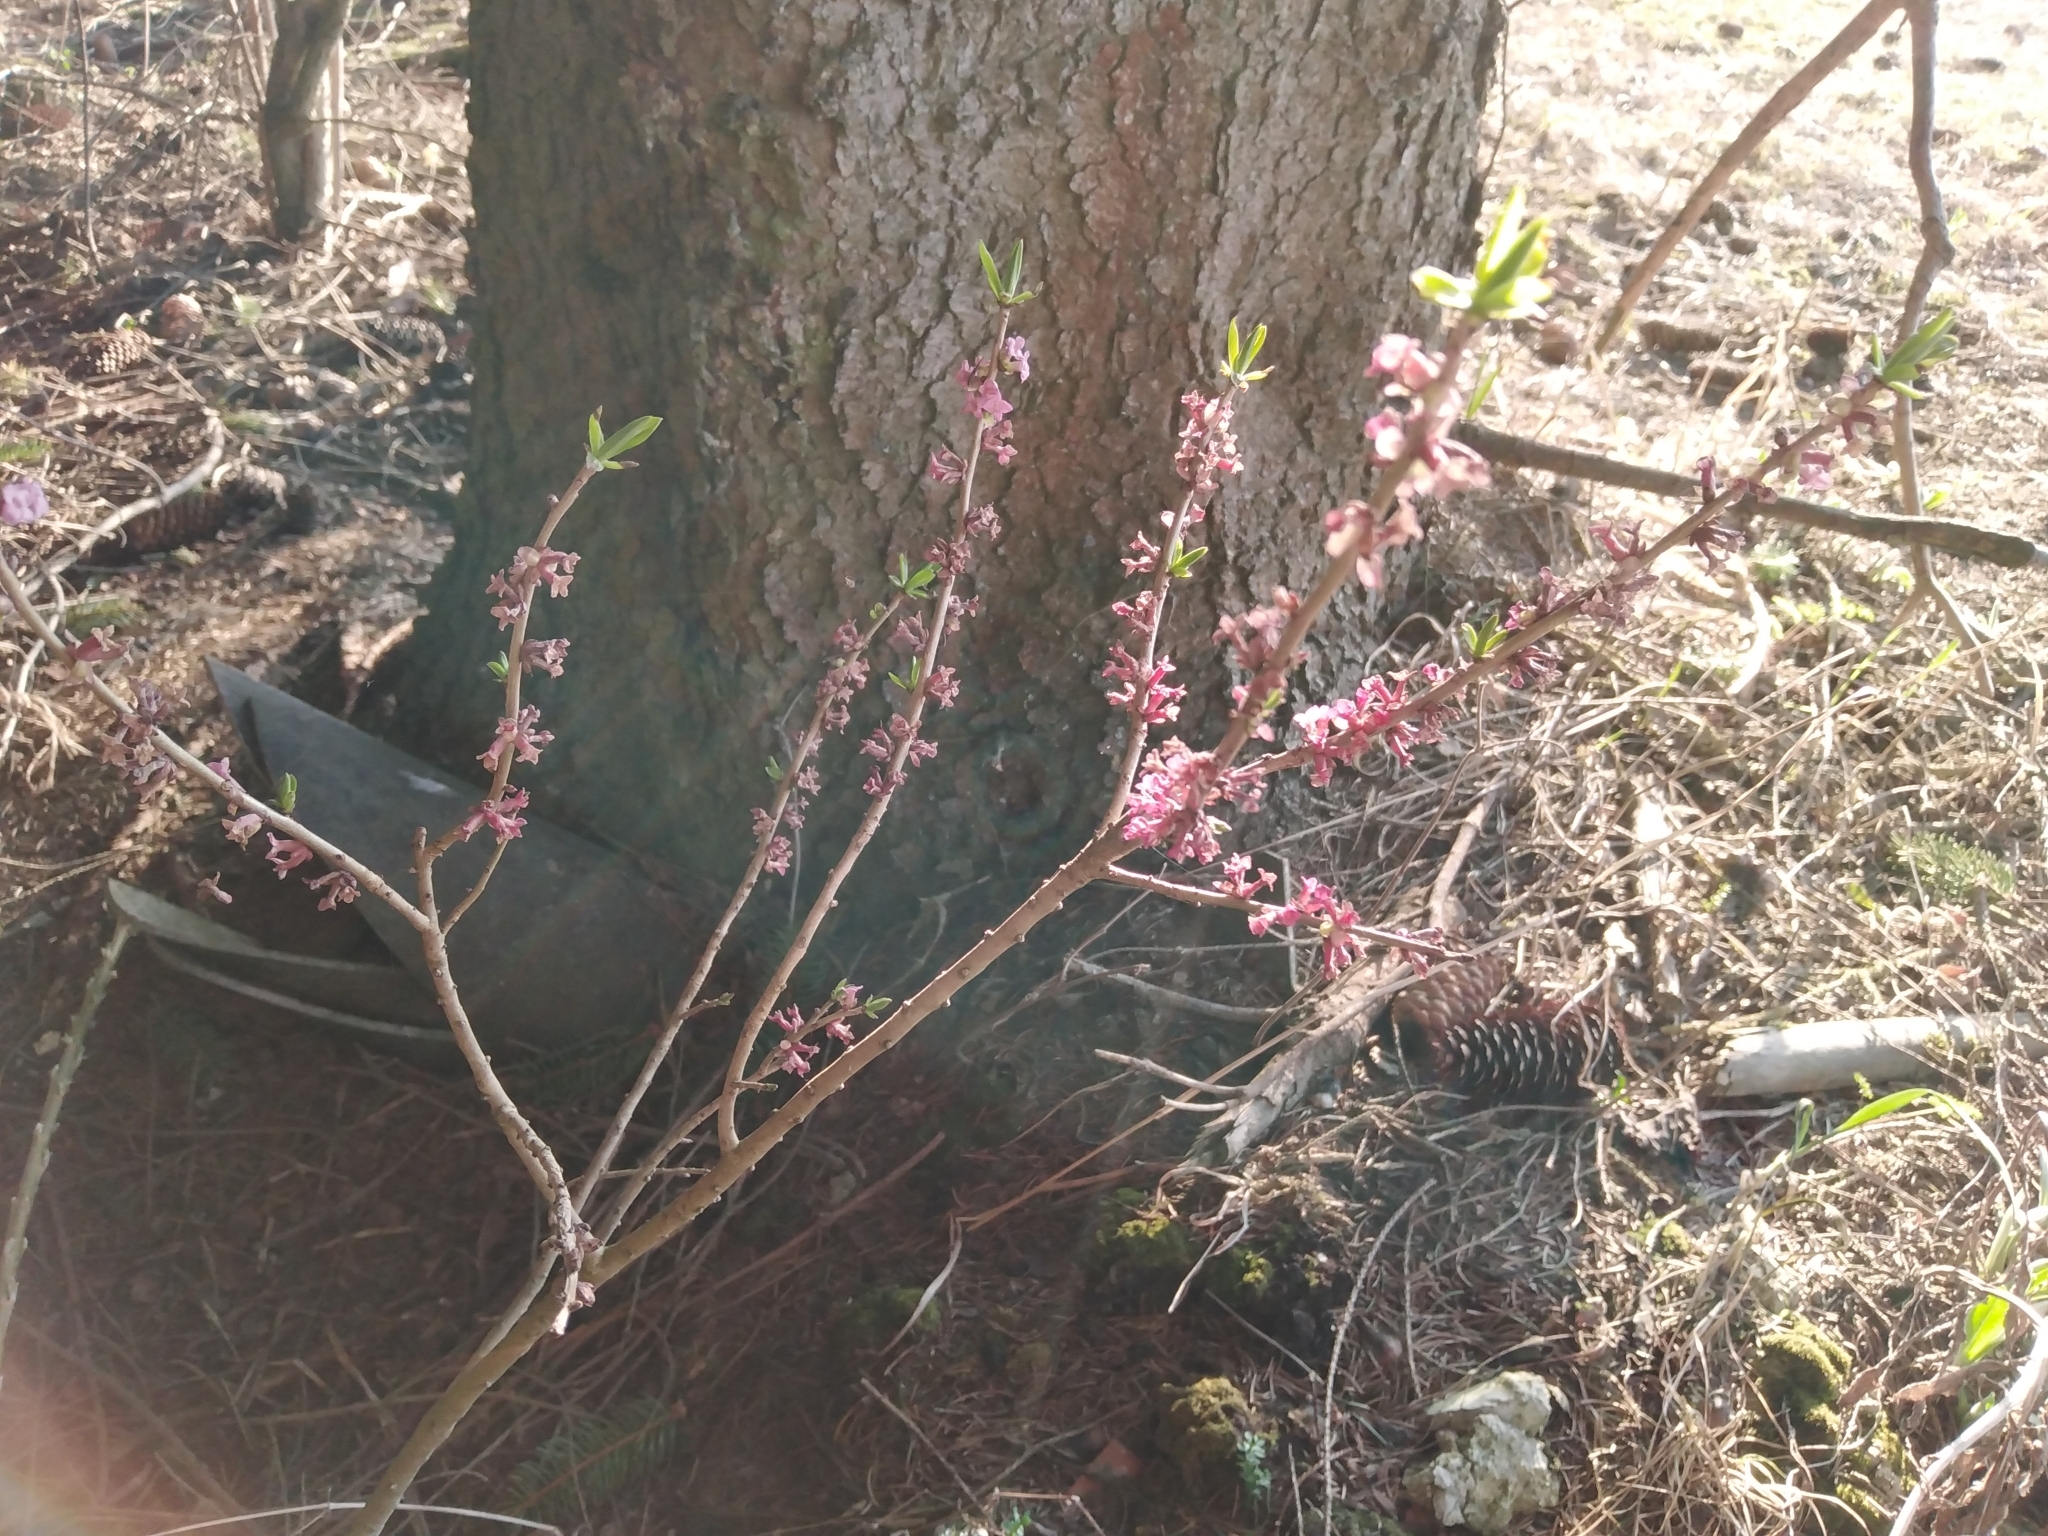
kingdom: Plantae
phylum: Tracheophyta
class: Magnoliopsida
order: Malvales
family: Thymelaeaceae
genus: Daphne
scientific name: Daphne mezereum
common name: Mezereon
